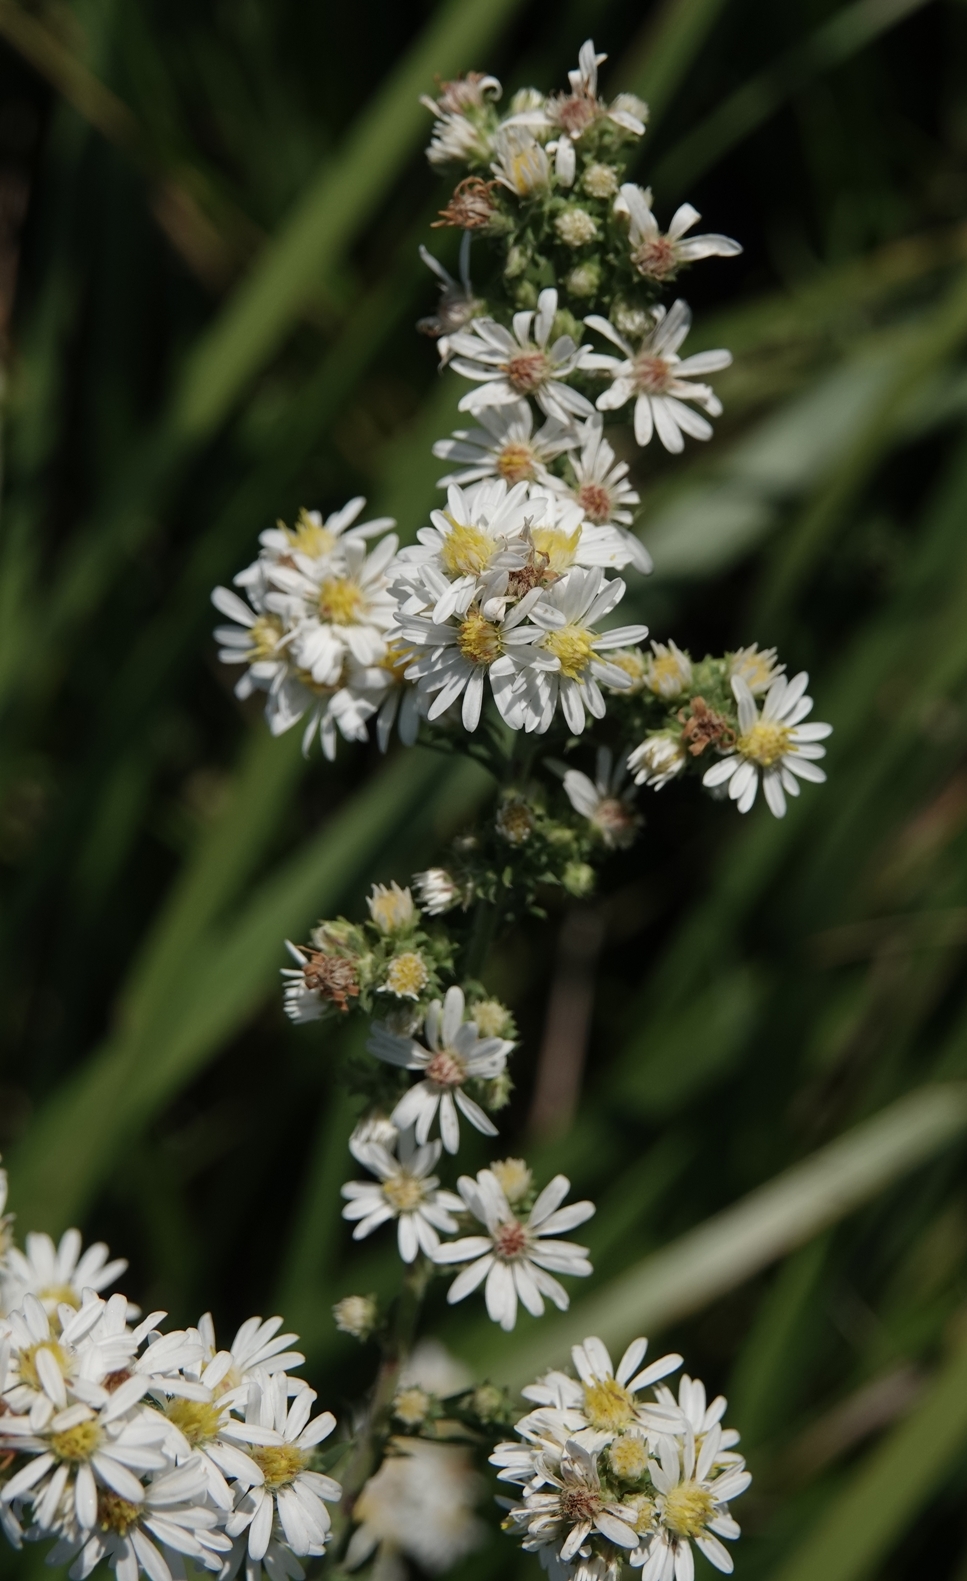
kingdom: Plantae
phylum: Tracheophyta
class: Magnoliopsida
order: Asterales
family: Asteraceae
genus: Symphyotrichum
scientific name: Symphyotrichum ericoides
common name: Heath aster
